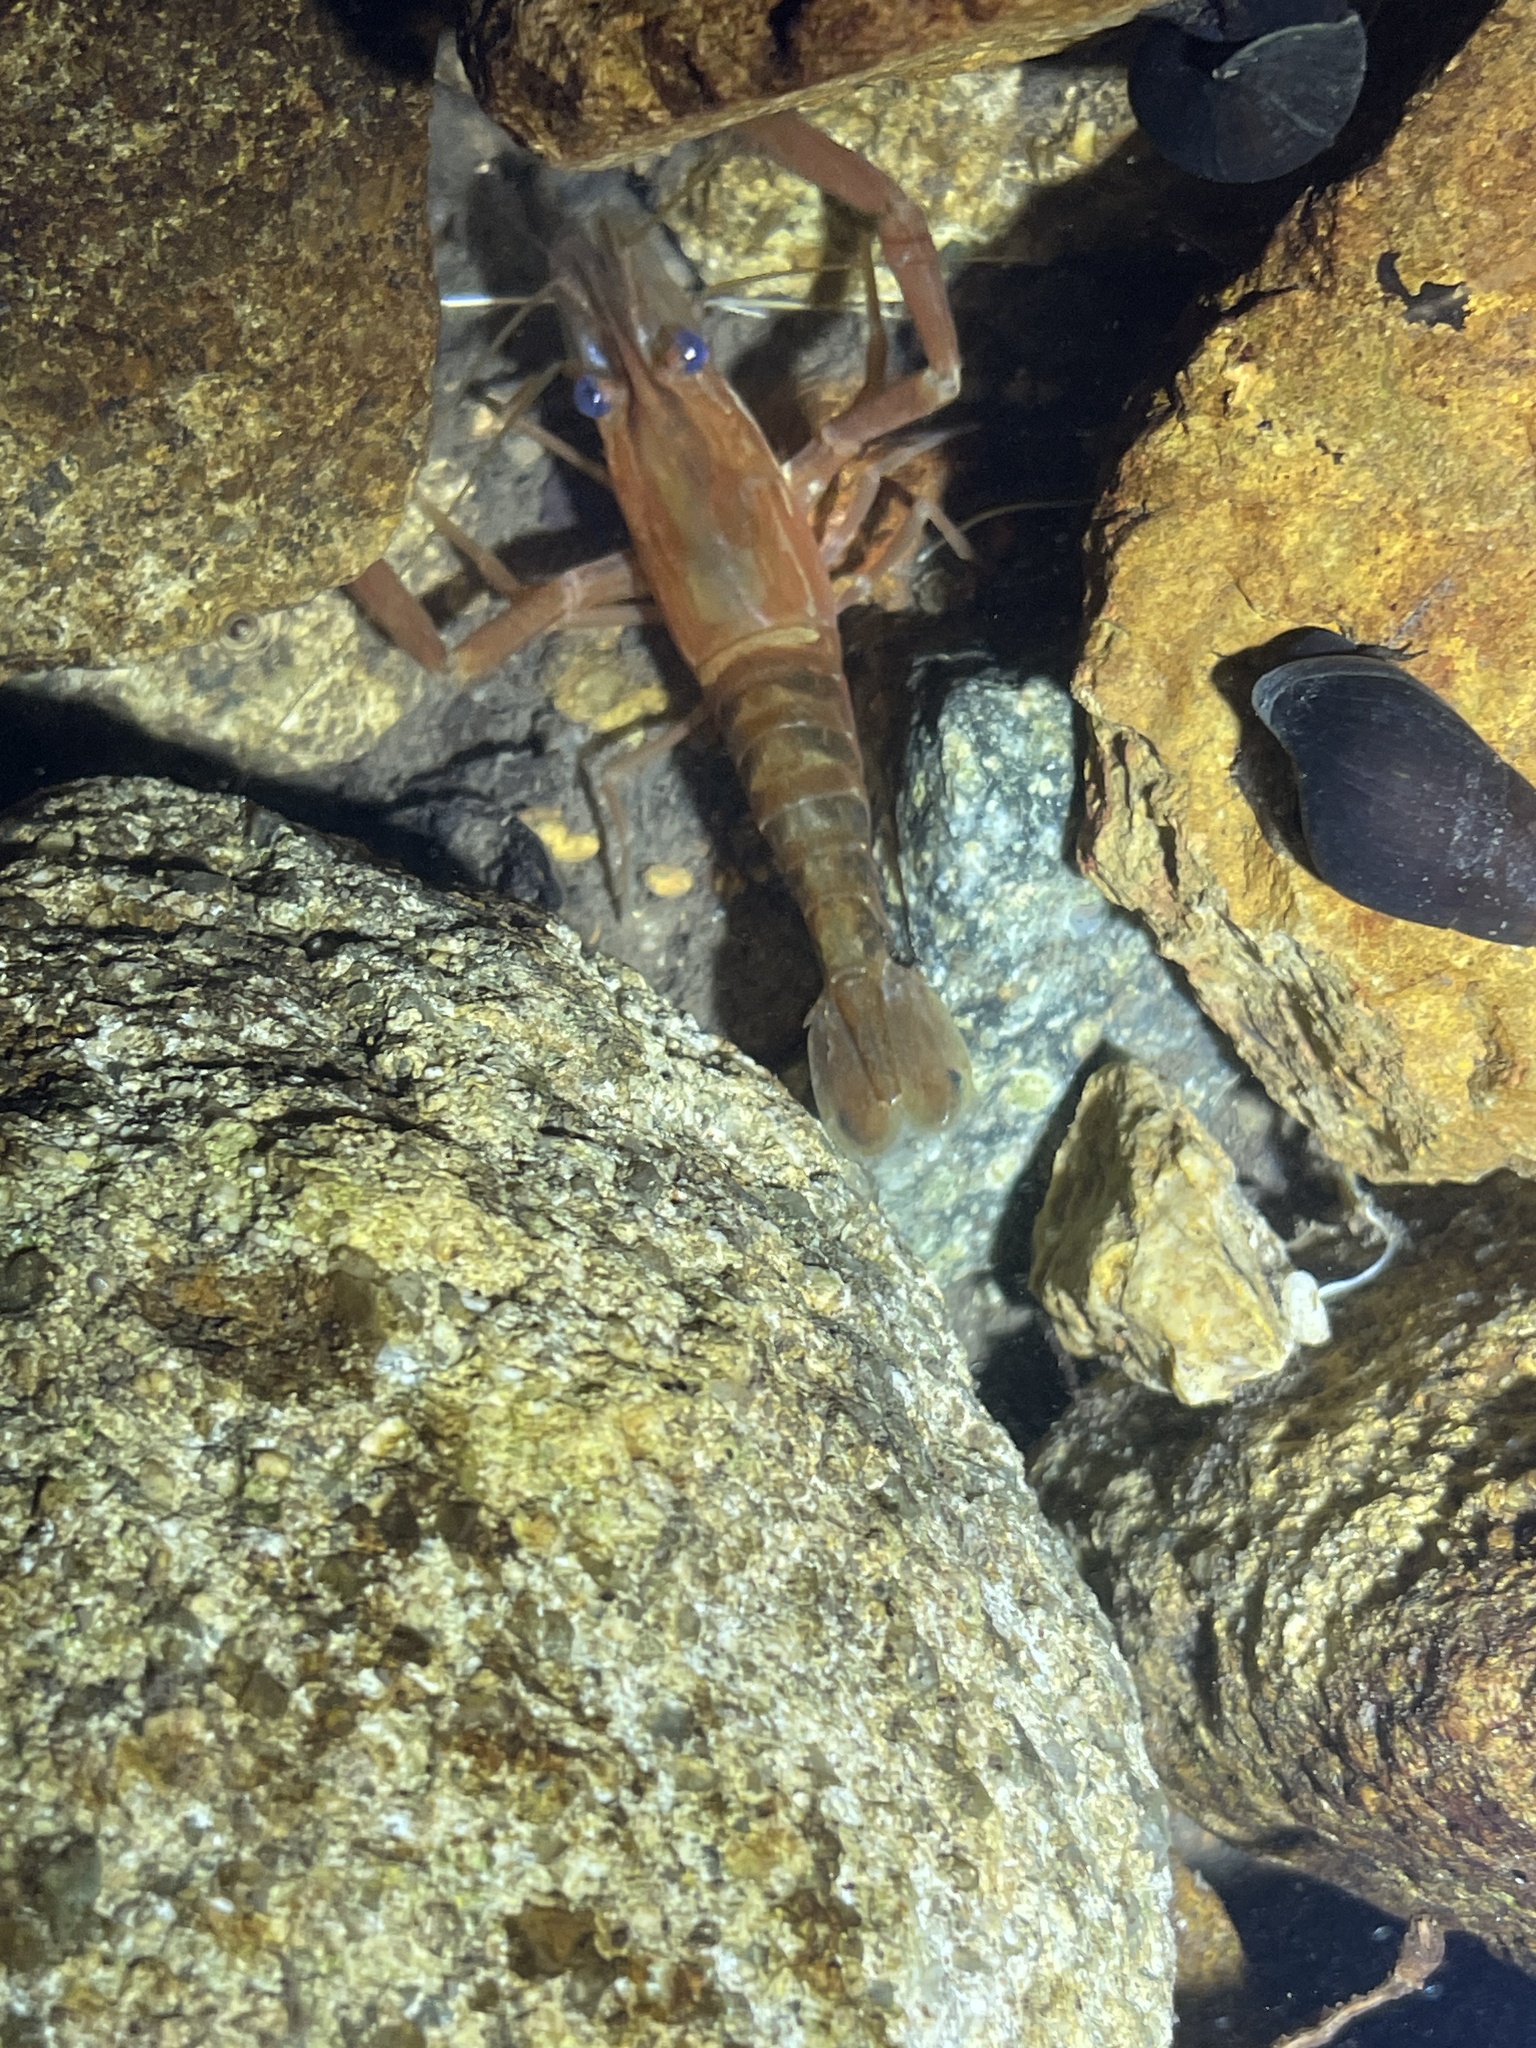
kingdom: Animalia
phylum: Arthropoda
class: Malacostraca
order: Decapoda
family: Palaemonidae
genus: Macrobrachium
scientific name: Macrobrachium laevis
